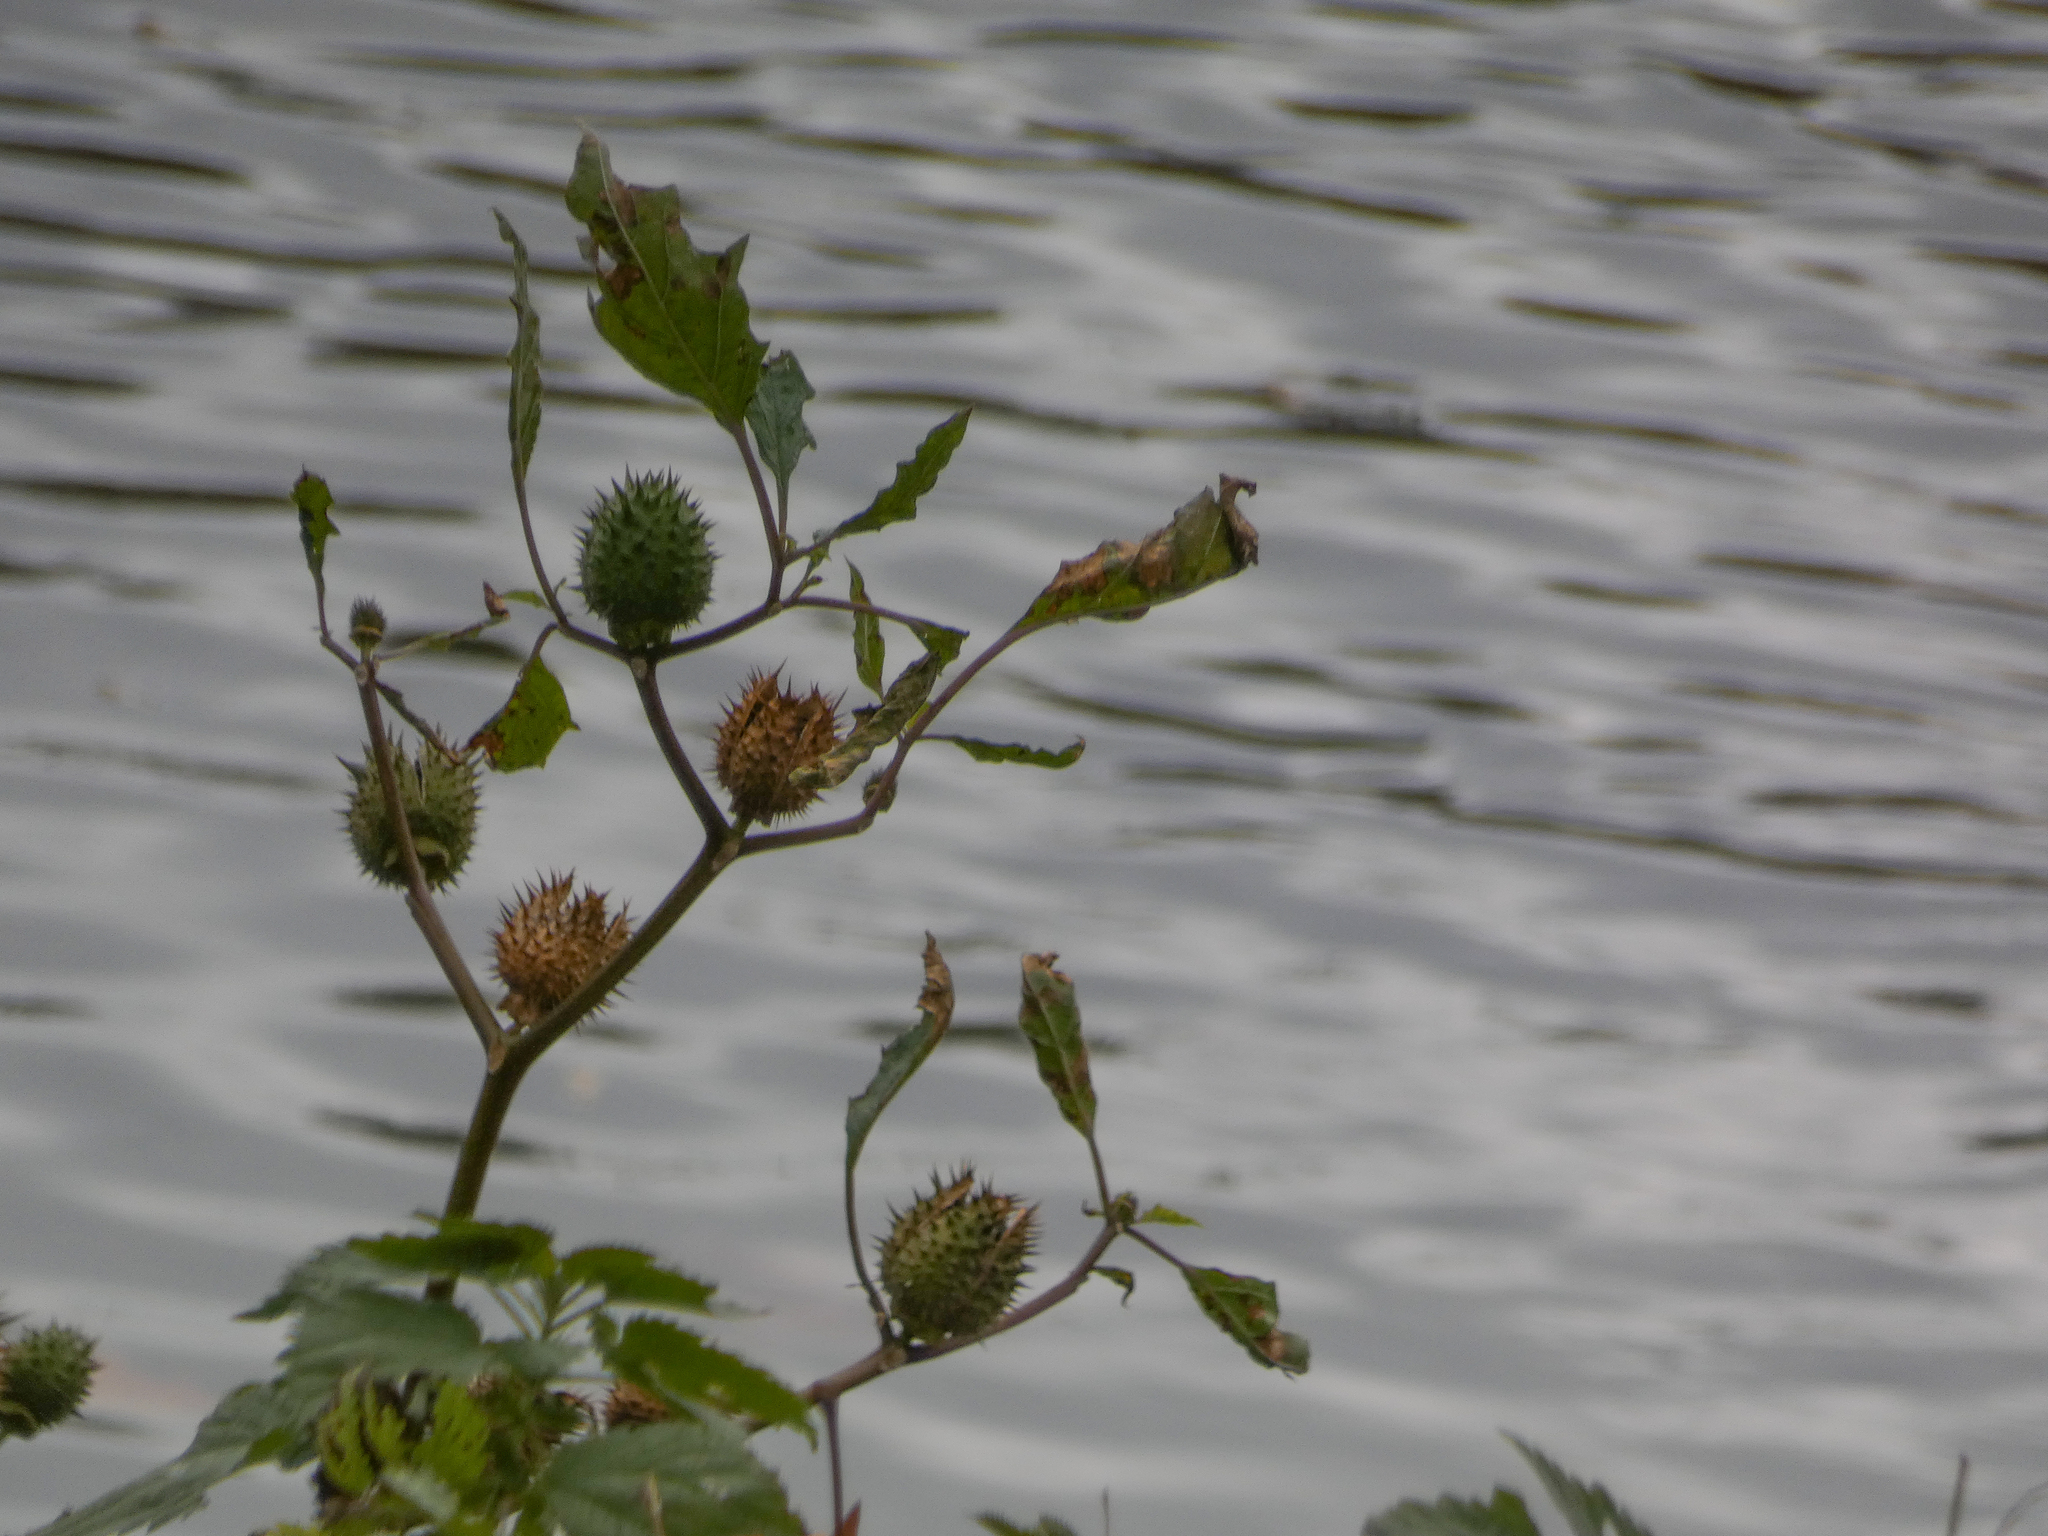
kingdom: Plantae
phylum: Tracheophyta
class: Magnoliopsida
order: Solanales
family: Solanaceae
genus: Datura
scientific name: Datura stramonium
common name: Thorn-apple
